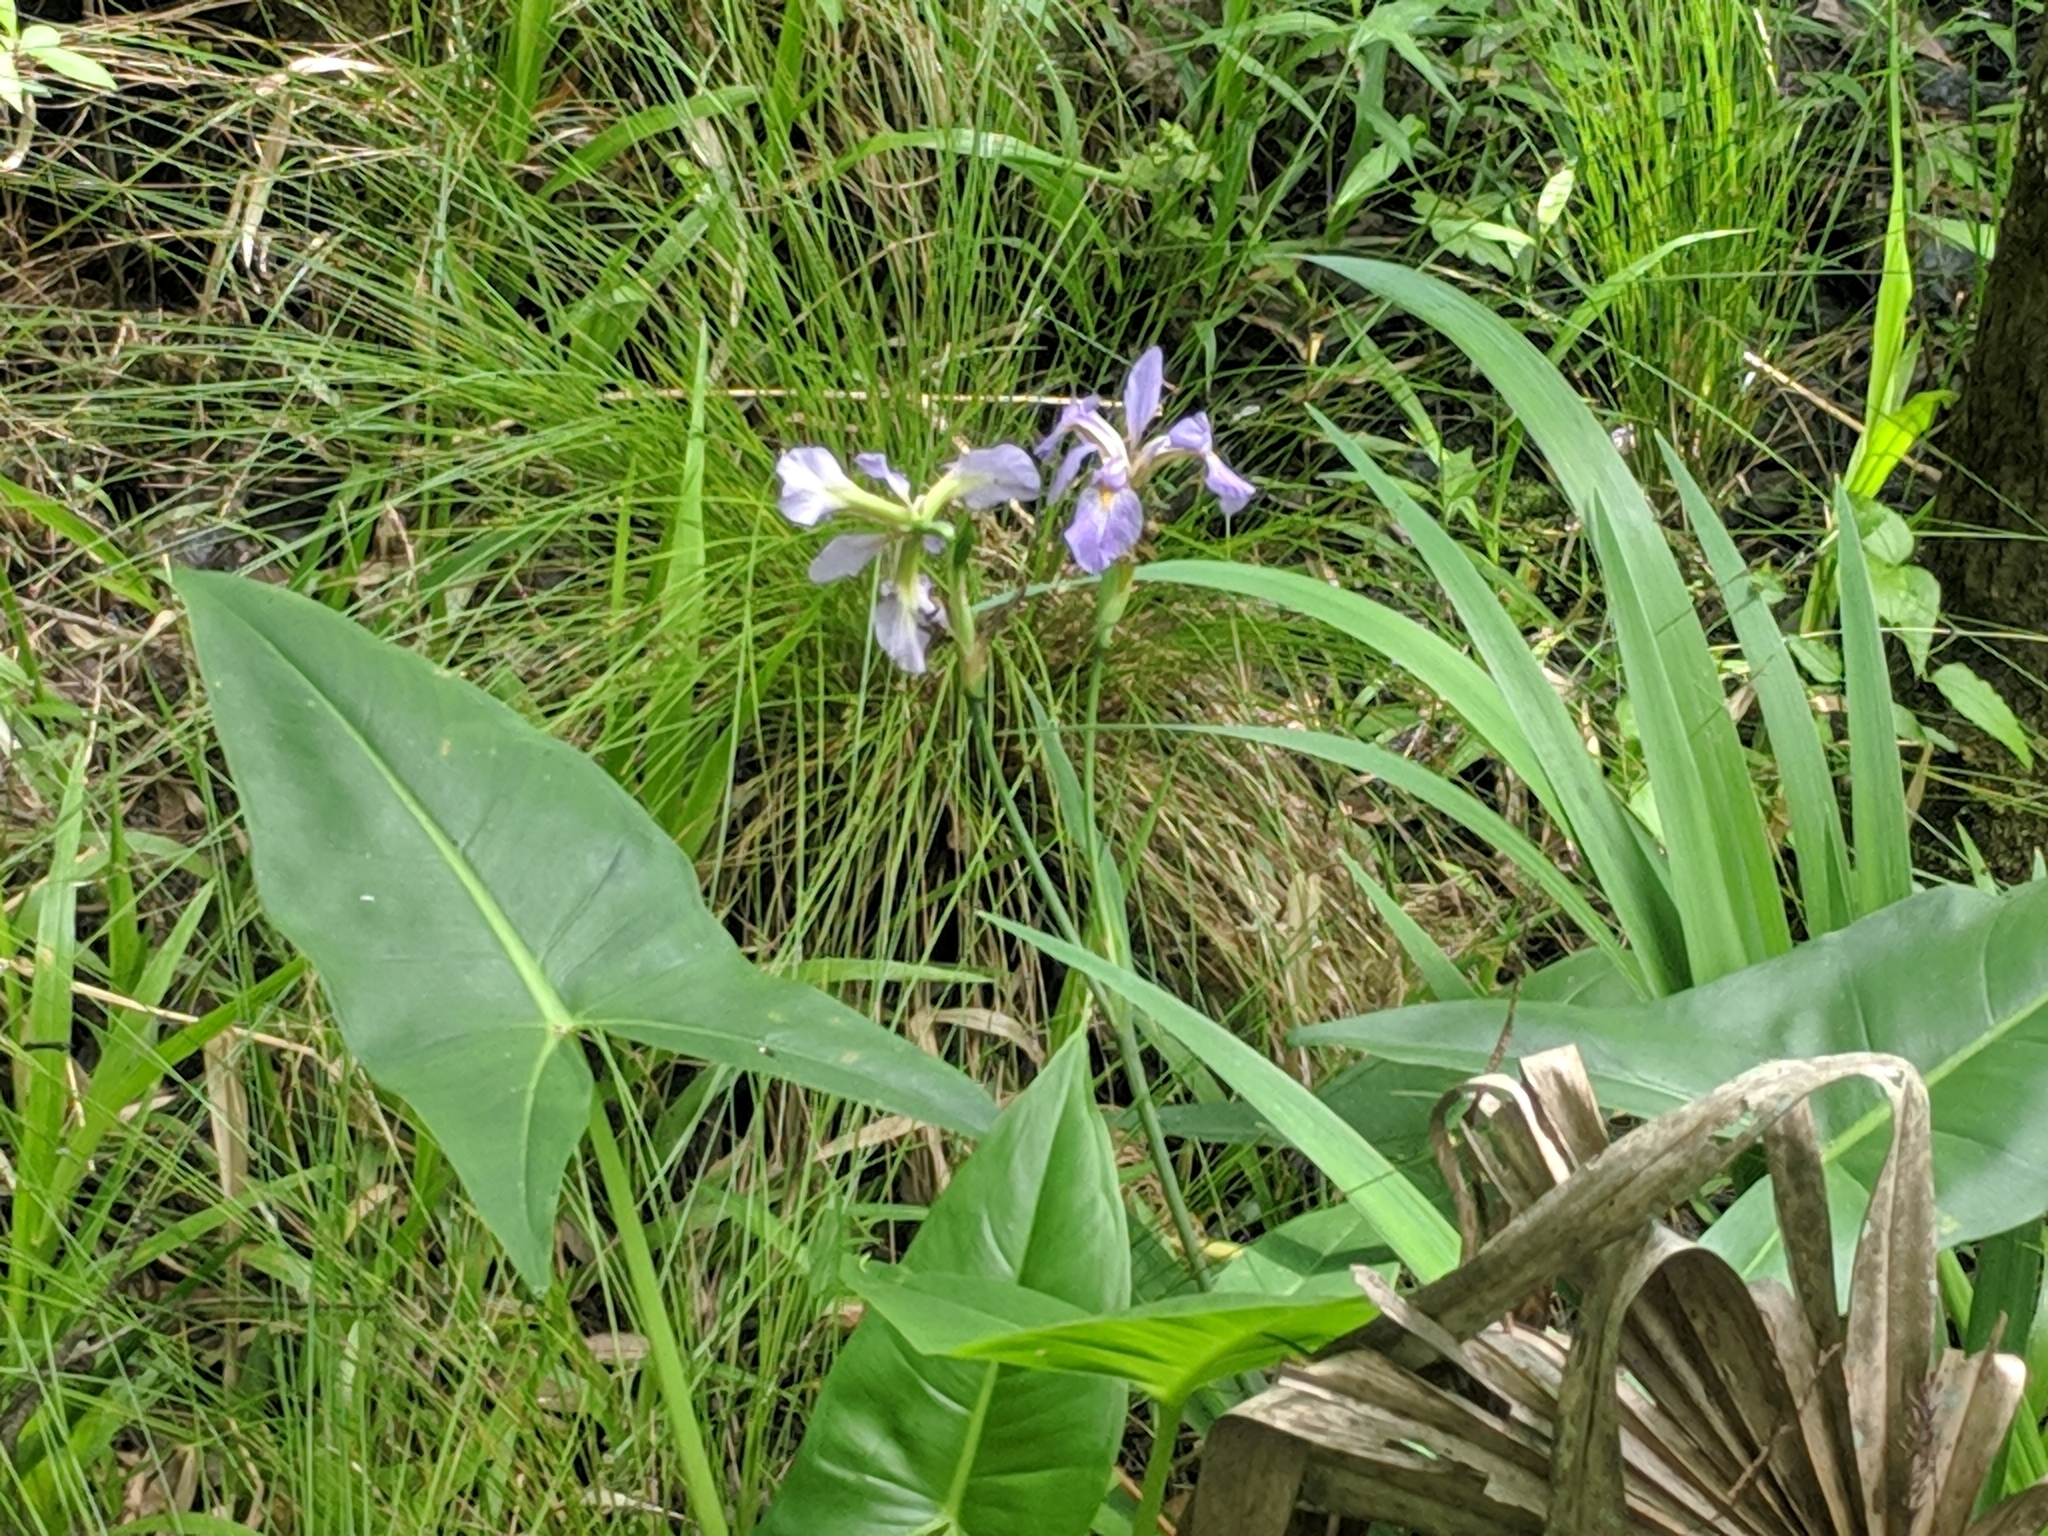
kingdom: Plantae
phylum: Tracheophyta
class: Liliopsida
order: Asparagales
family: Iridaceae
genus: Iris
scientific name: Iris virginica
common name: Southern blue flag
